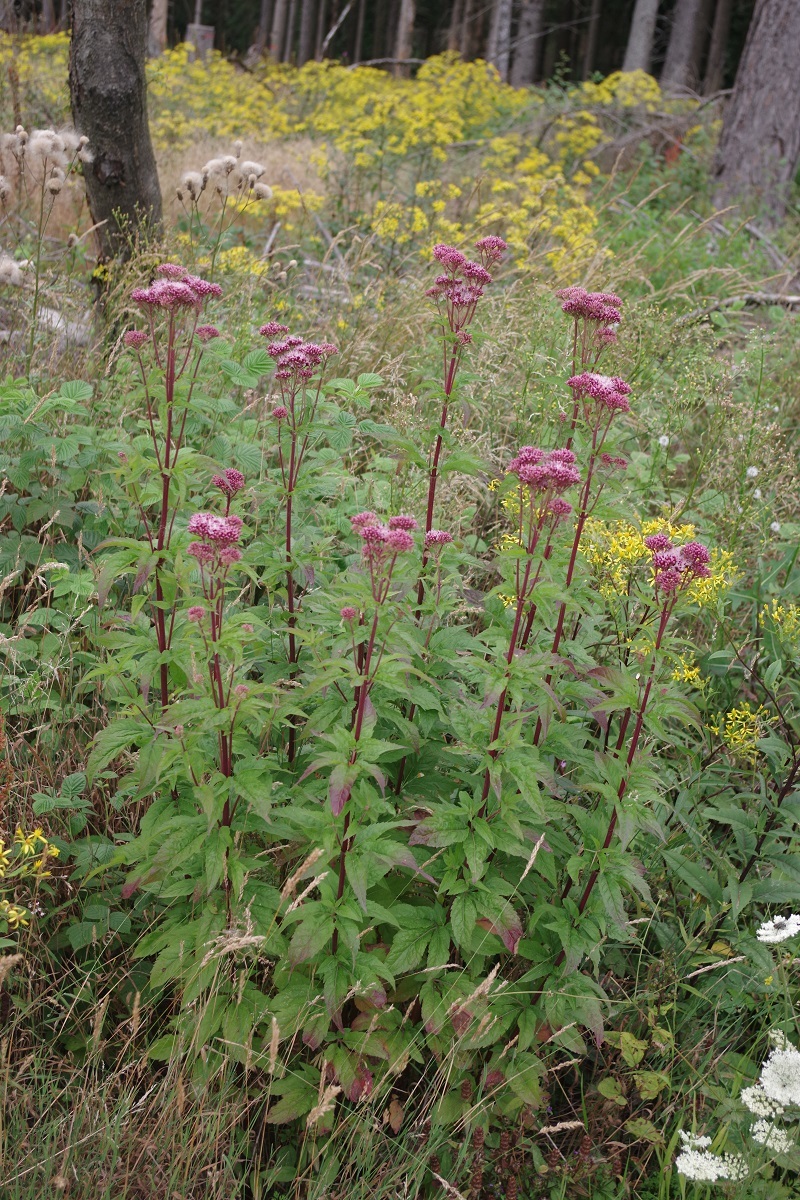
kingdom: Plantae
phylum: Tracheophyta
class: Magnoliopsida
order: Asterales
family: Asteraceae
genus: Eupatorium
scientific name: Eupatorium cannabinum
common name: Hemp-agrimony
